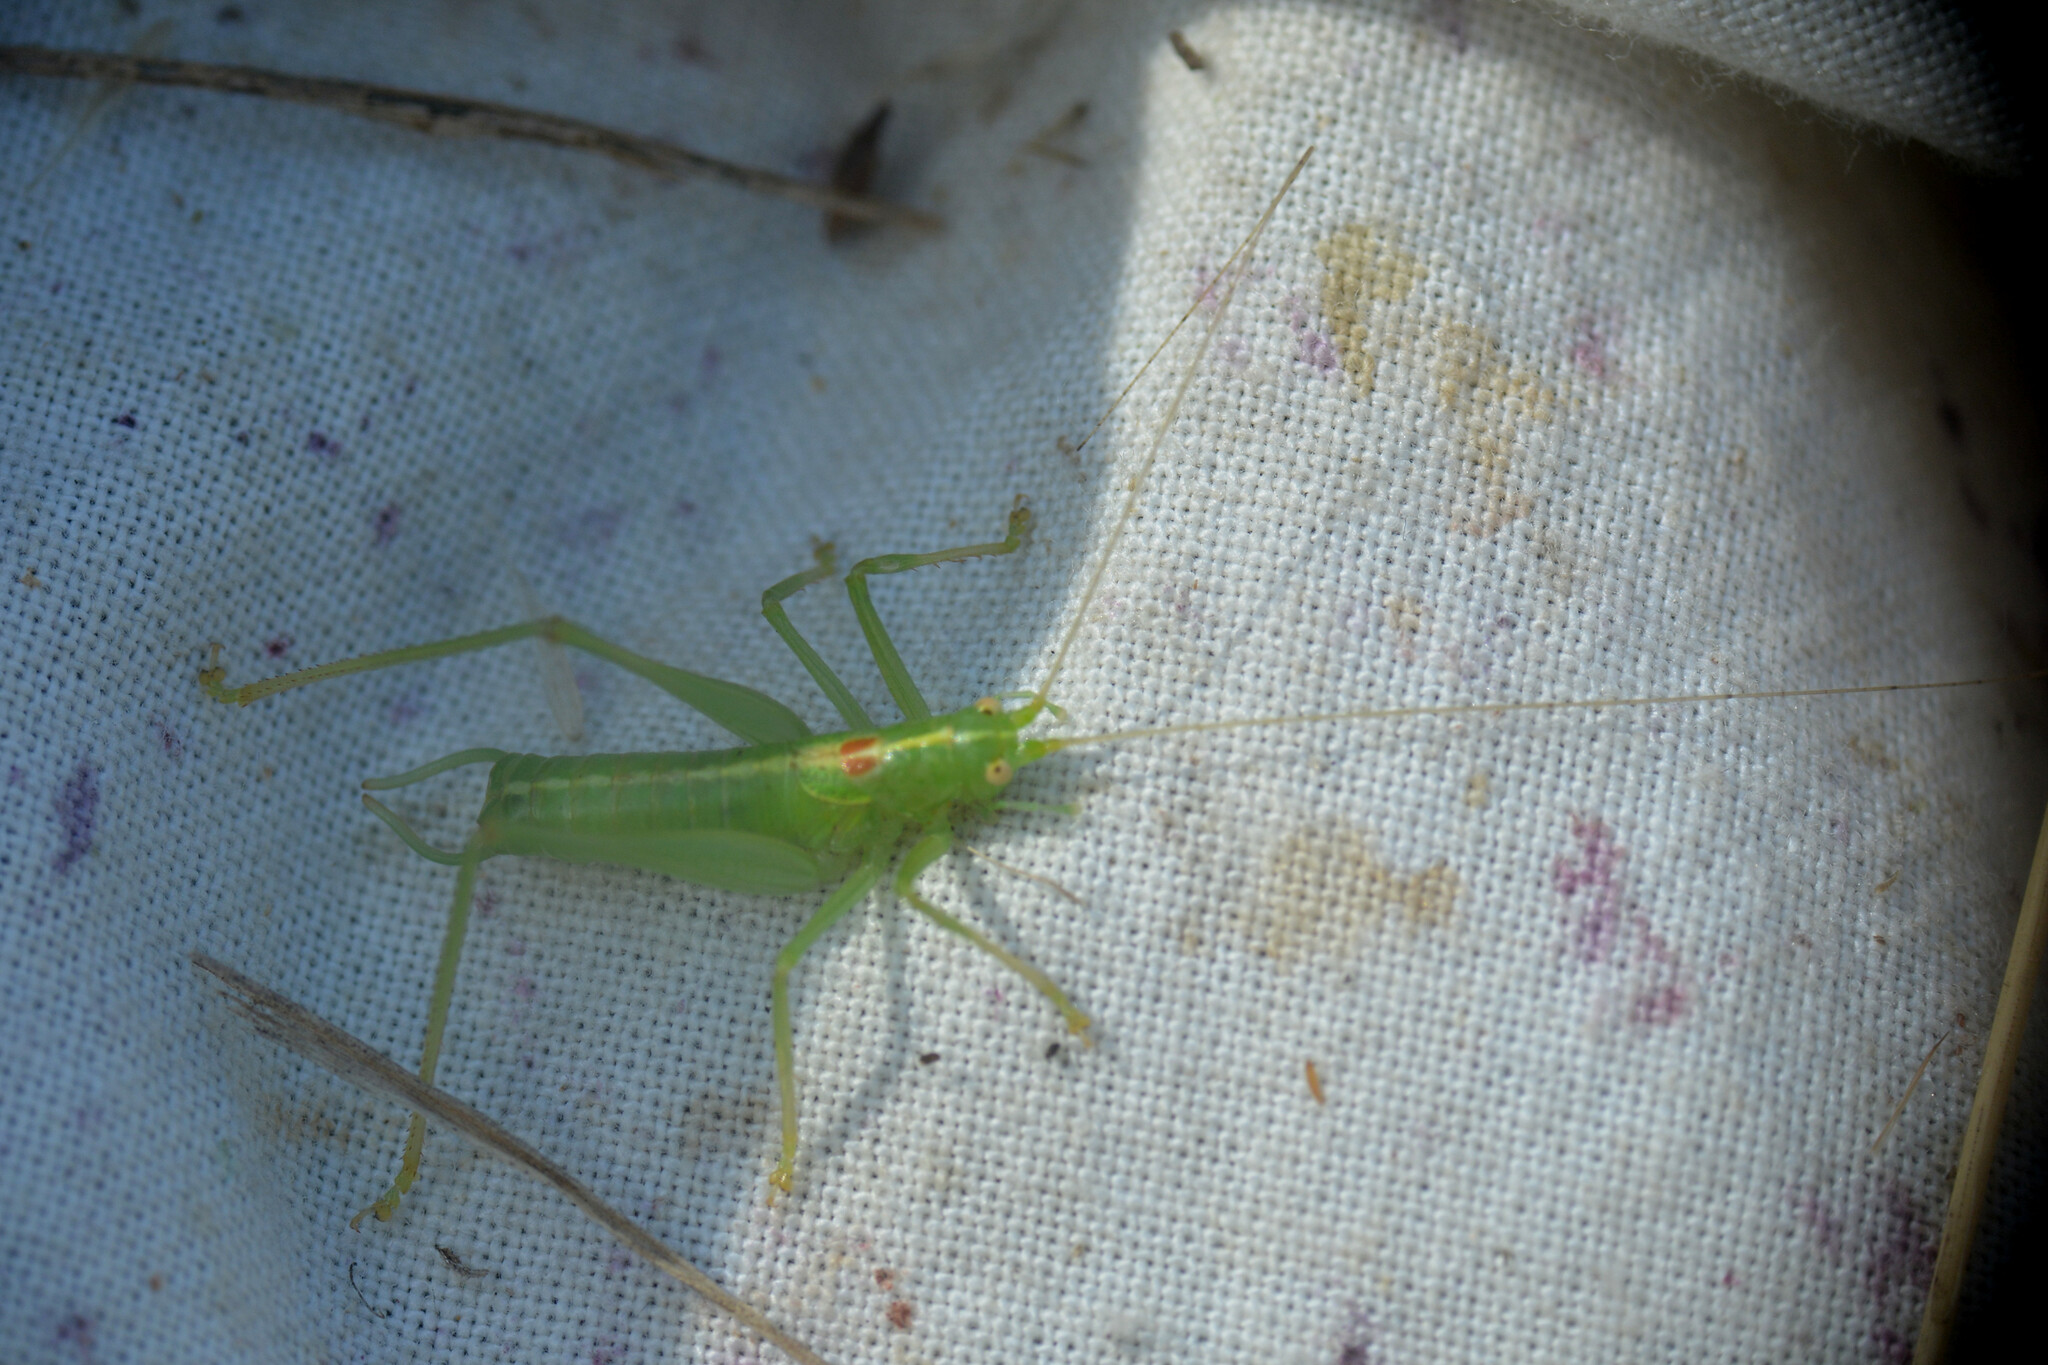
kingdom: Animalia
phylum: Arthropoda
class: Insecta
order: Orthoptera
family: Tettigoniidae
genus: Meconema
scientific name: Meconema meridionale
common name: Southern oak bush-cricket
